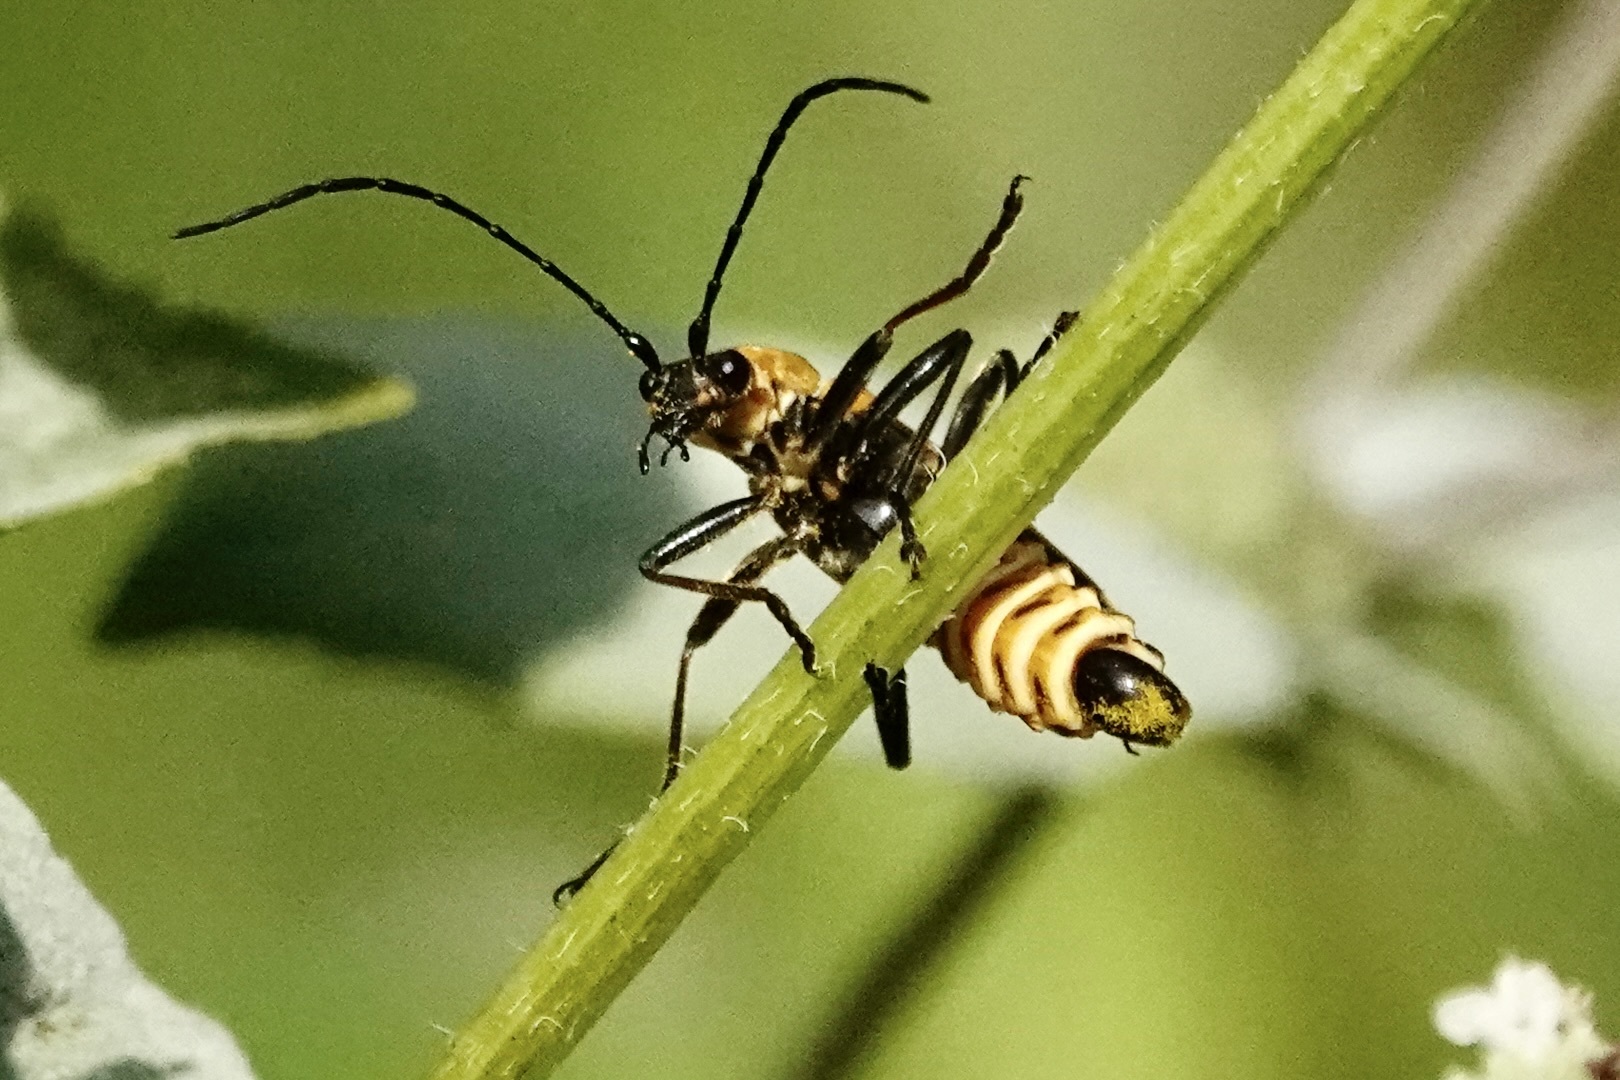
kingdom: Animalia
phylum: Arthropoda
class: Insecta
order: Coleoptera
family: Cantharidae
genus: Chauliognathus
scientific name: Chauliognathus pensylvanicus
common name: Goldenrod soldier beetle
